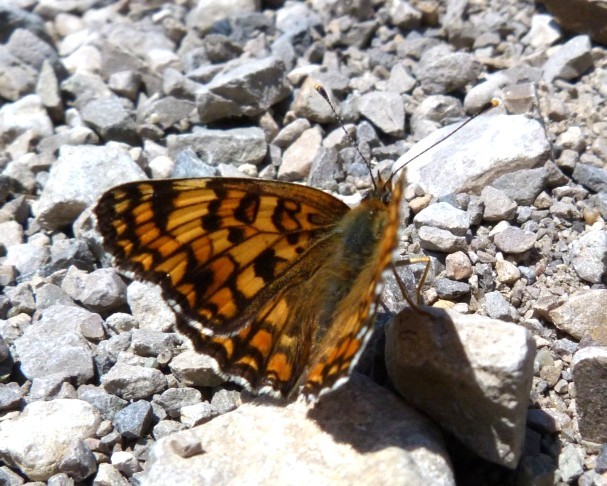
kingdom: Animalia
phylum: Arthropoda
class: Insecta
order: Lepidoptera
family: Nymphalidae
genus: Melitaea
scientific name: Melitaea phoebe
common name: Knapweed fritillary
